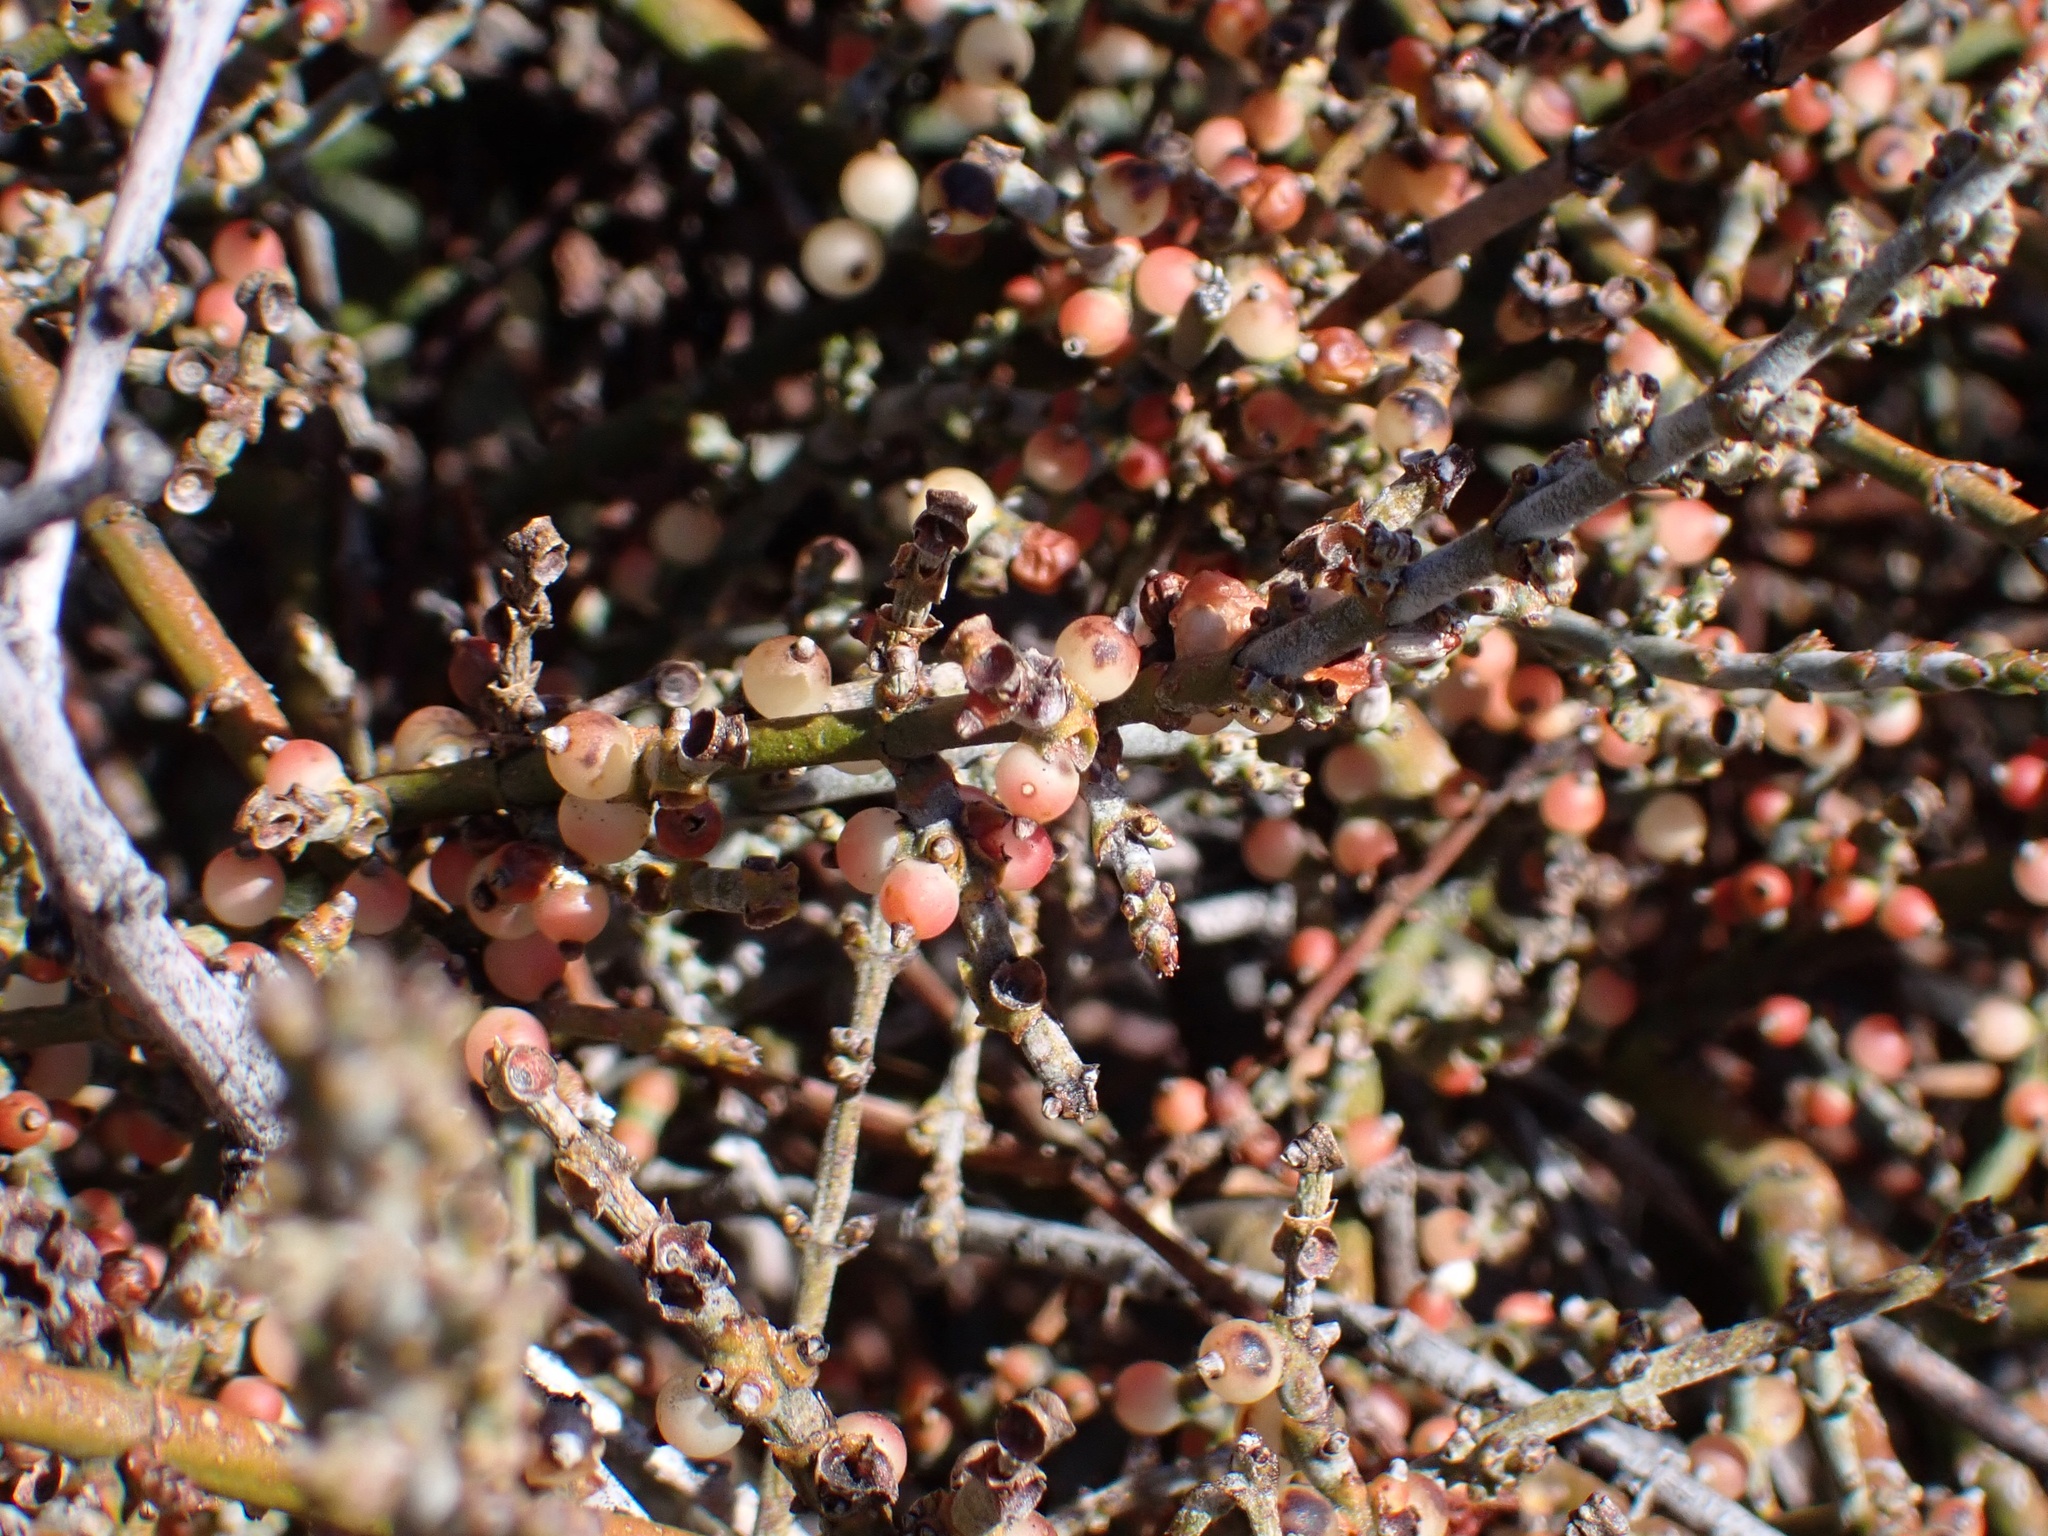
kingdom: Plantae
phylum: Tracheophyta
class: Magnoliopsida
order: Santalales
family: Viscaceae
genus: Phoradendron
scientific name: Phoradendron californicum
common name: Acacia mistletoe
